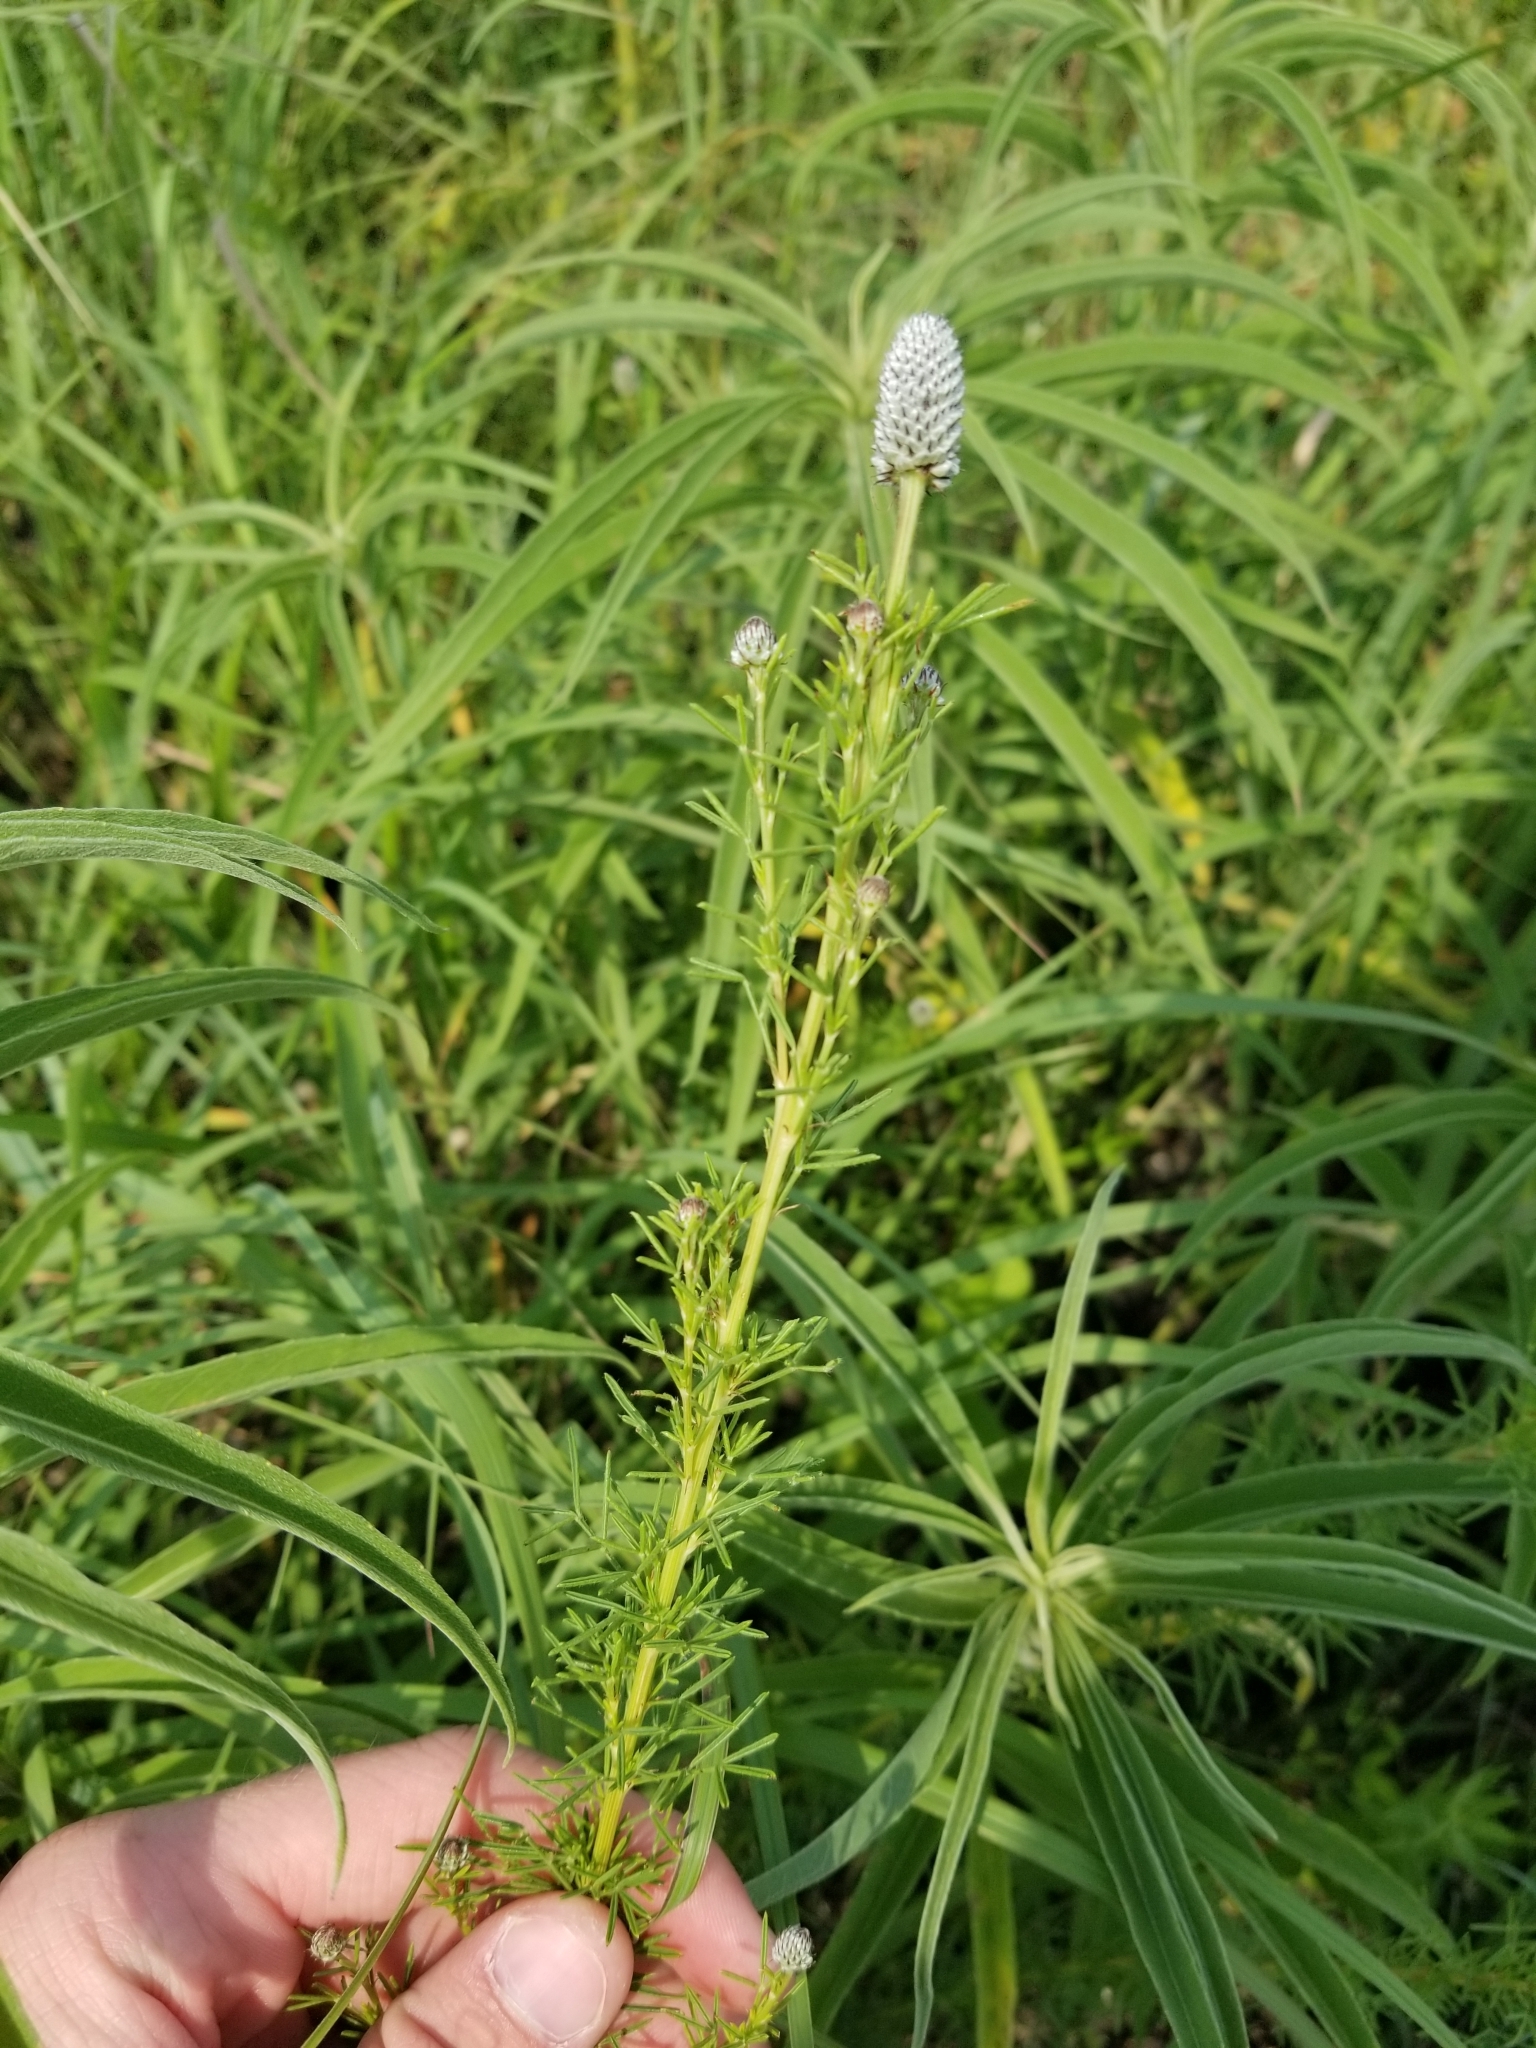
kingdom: Plantae
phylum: Tracheophyta
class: Magnoliopsida
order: Fabales
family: Fabaceae
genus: Dalea
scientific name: Dalea purpurea
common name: Purple prairie-clover
